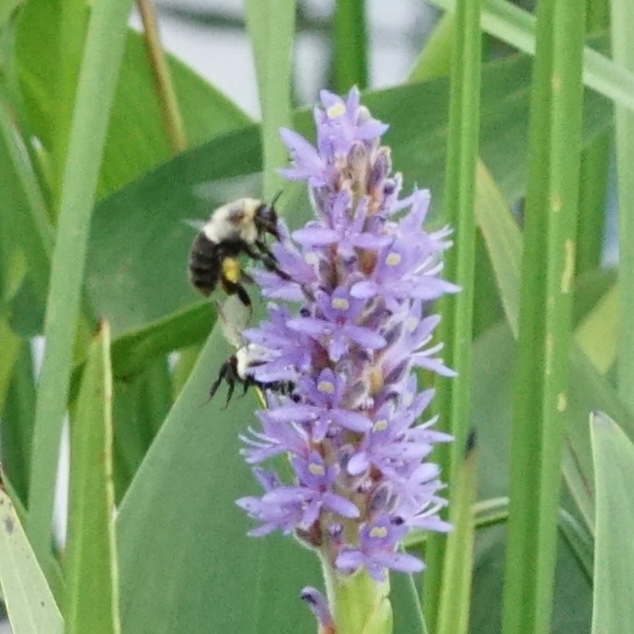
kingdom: Animalia
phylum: Arthropoda
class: Insecta
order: Hymenoptera
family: Apidae
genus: Bombus
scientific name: Bombus impatiens
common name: Common eastern bumble bee
